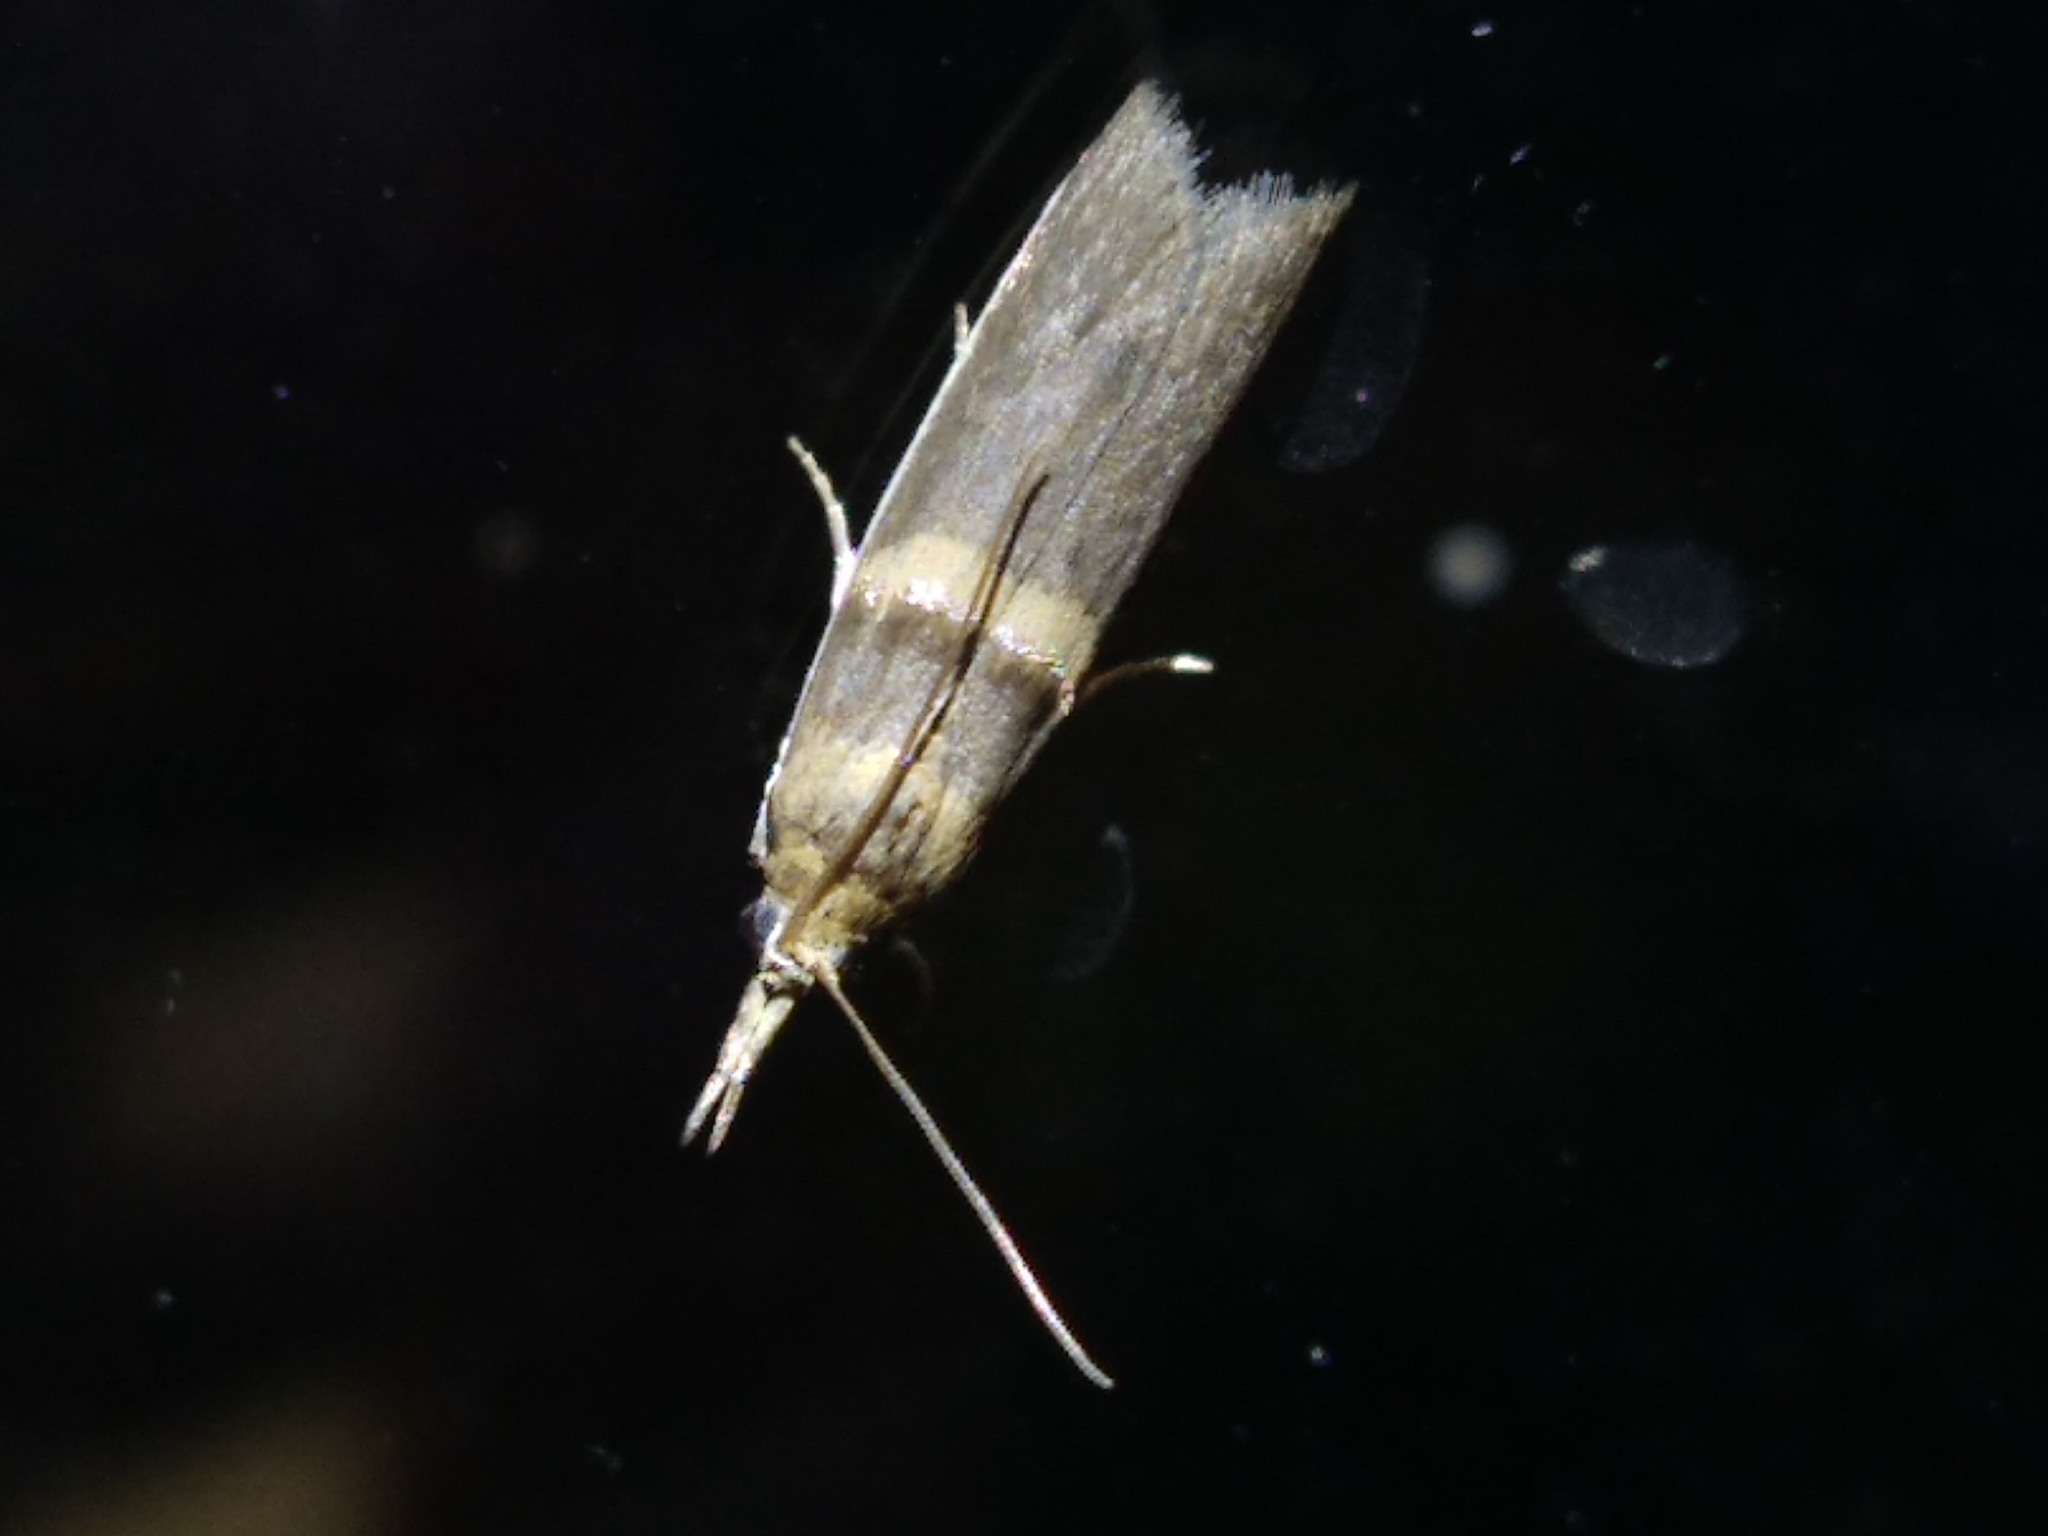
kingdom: Animalia
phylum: Arthropoda
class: Insecta
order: Lepidoptera
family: Pyralidae
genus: Etiella
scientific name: Etiella zinckenella
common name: Gold-banded etiella moth
